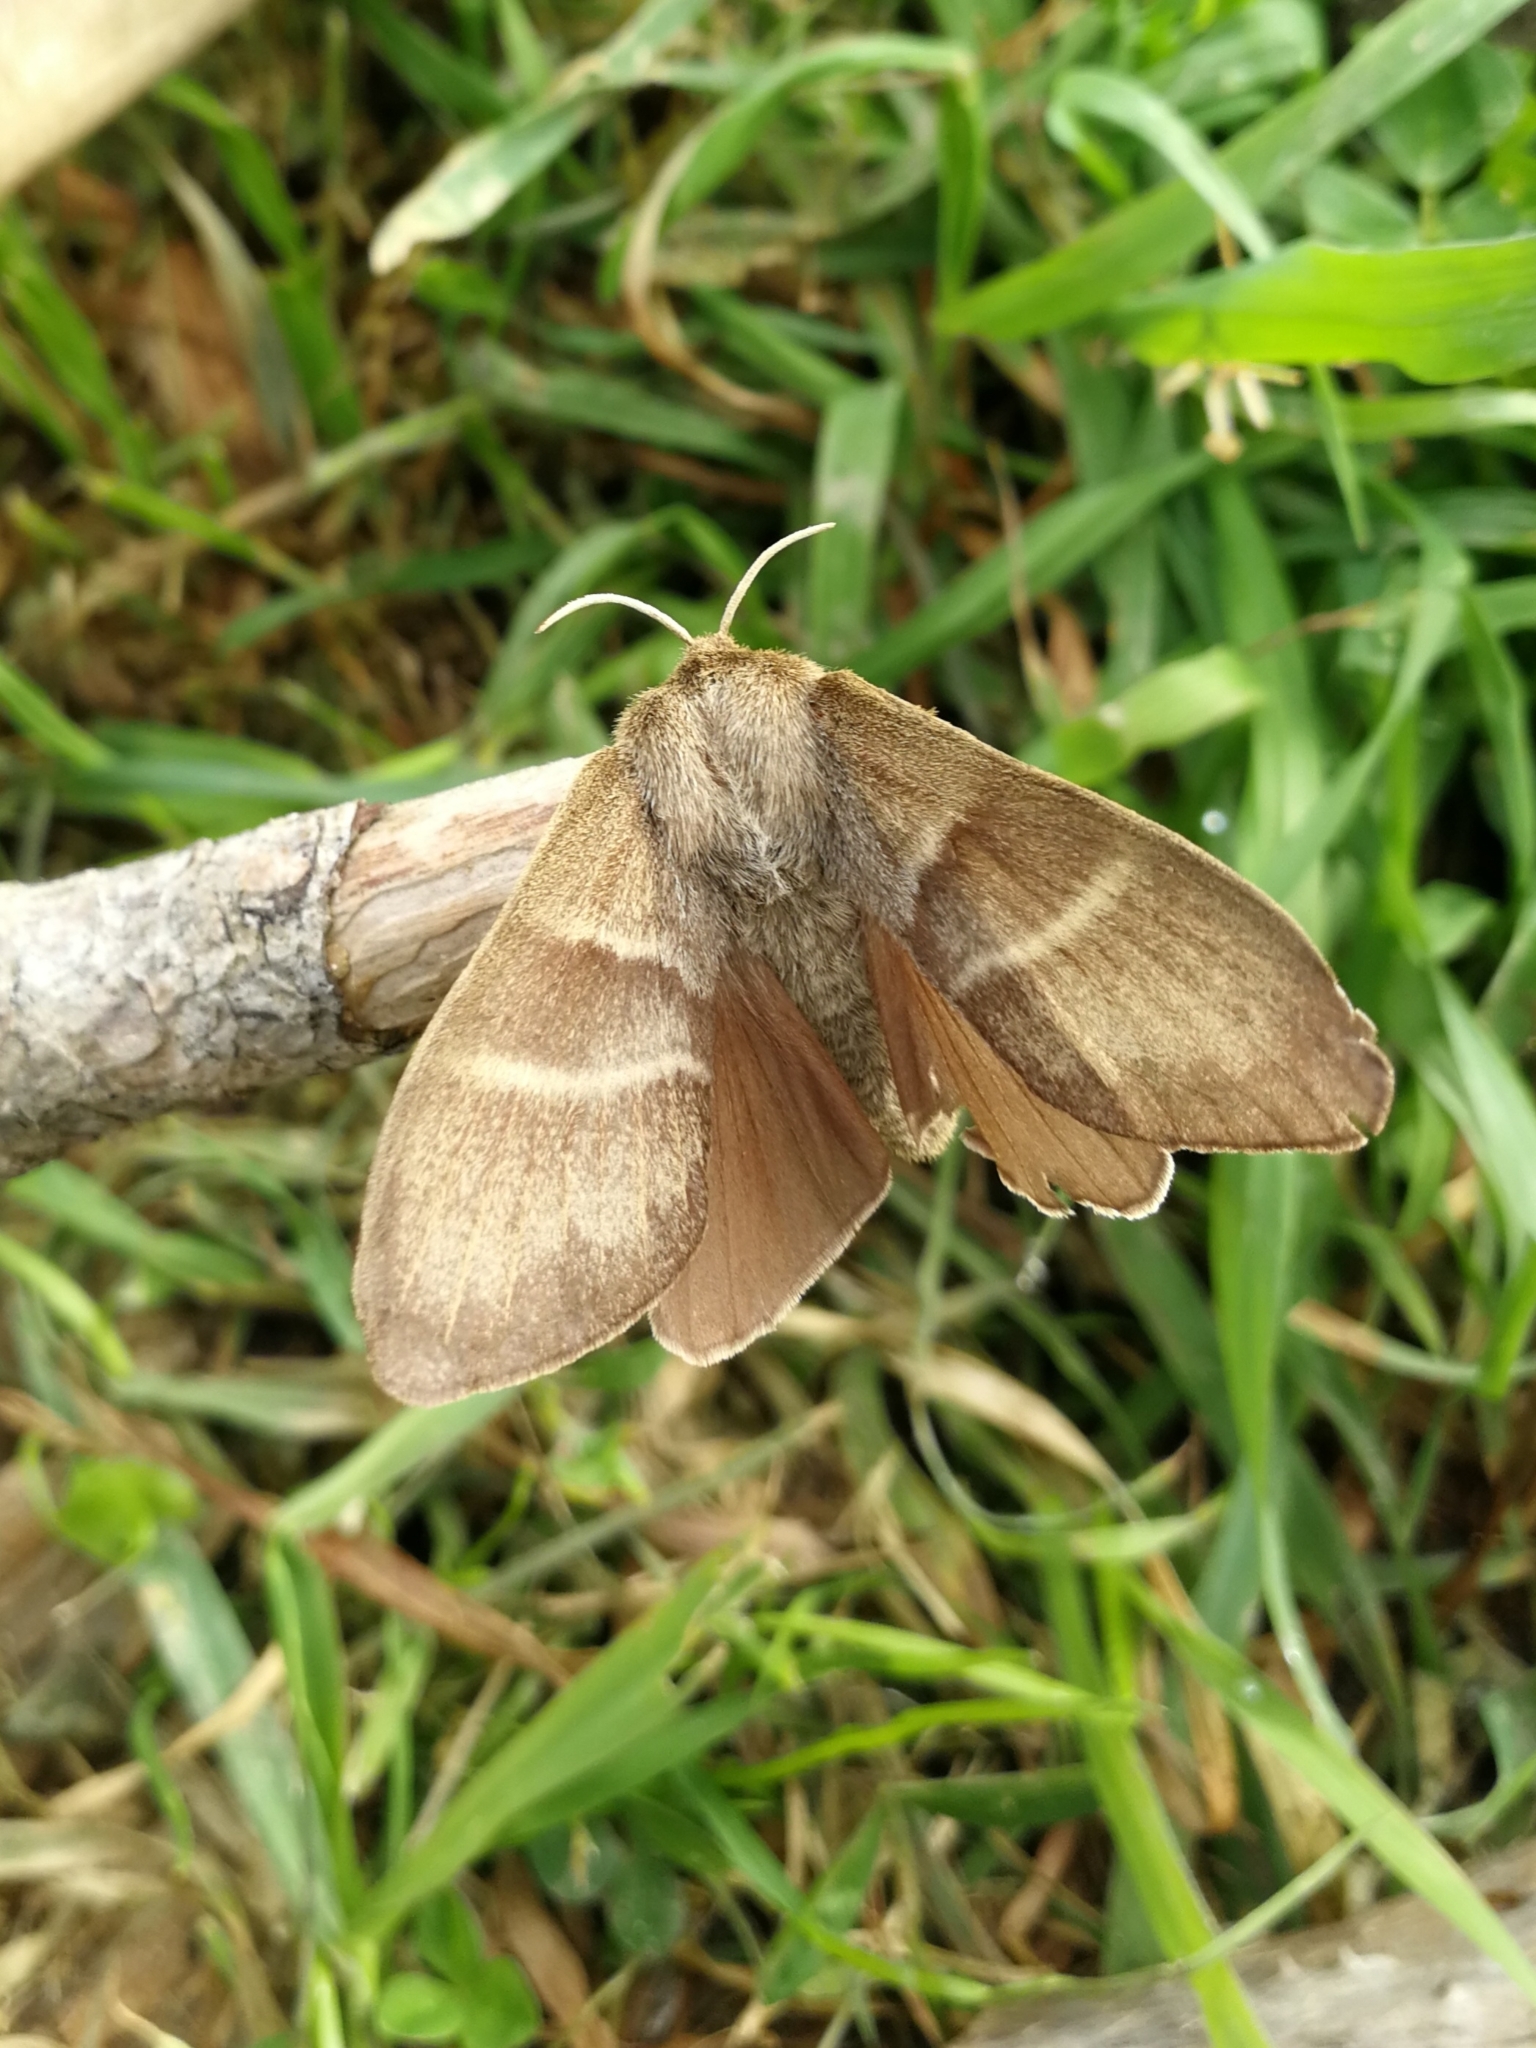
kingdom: Animalia
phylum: Arthropoda
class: Insecta
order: Lepidoptera
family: Lasiocampidae
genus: Macrothylacia
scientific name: Macrothylacia rubi
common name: Fox moth
